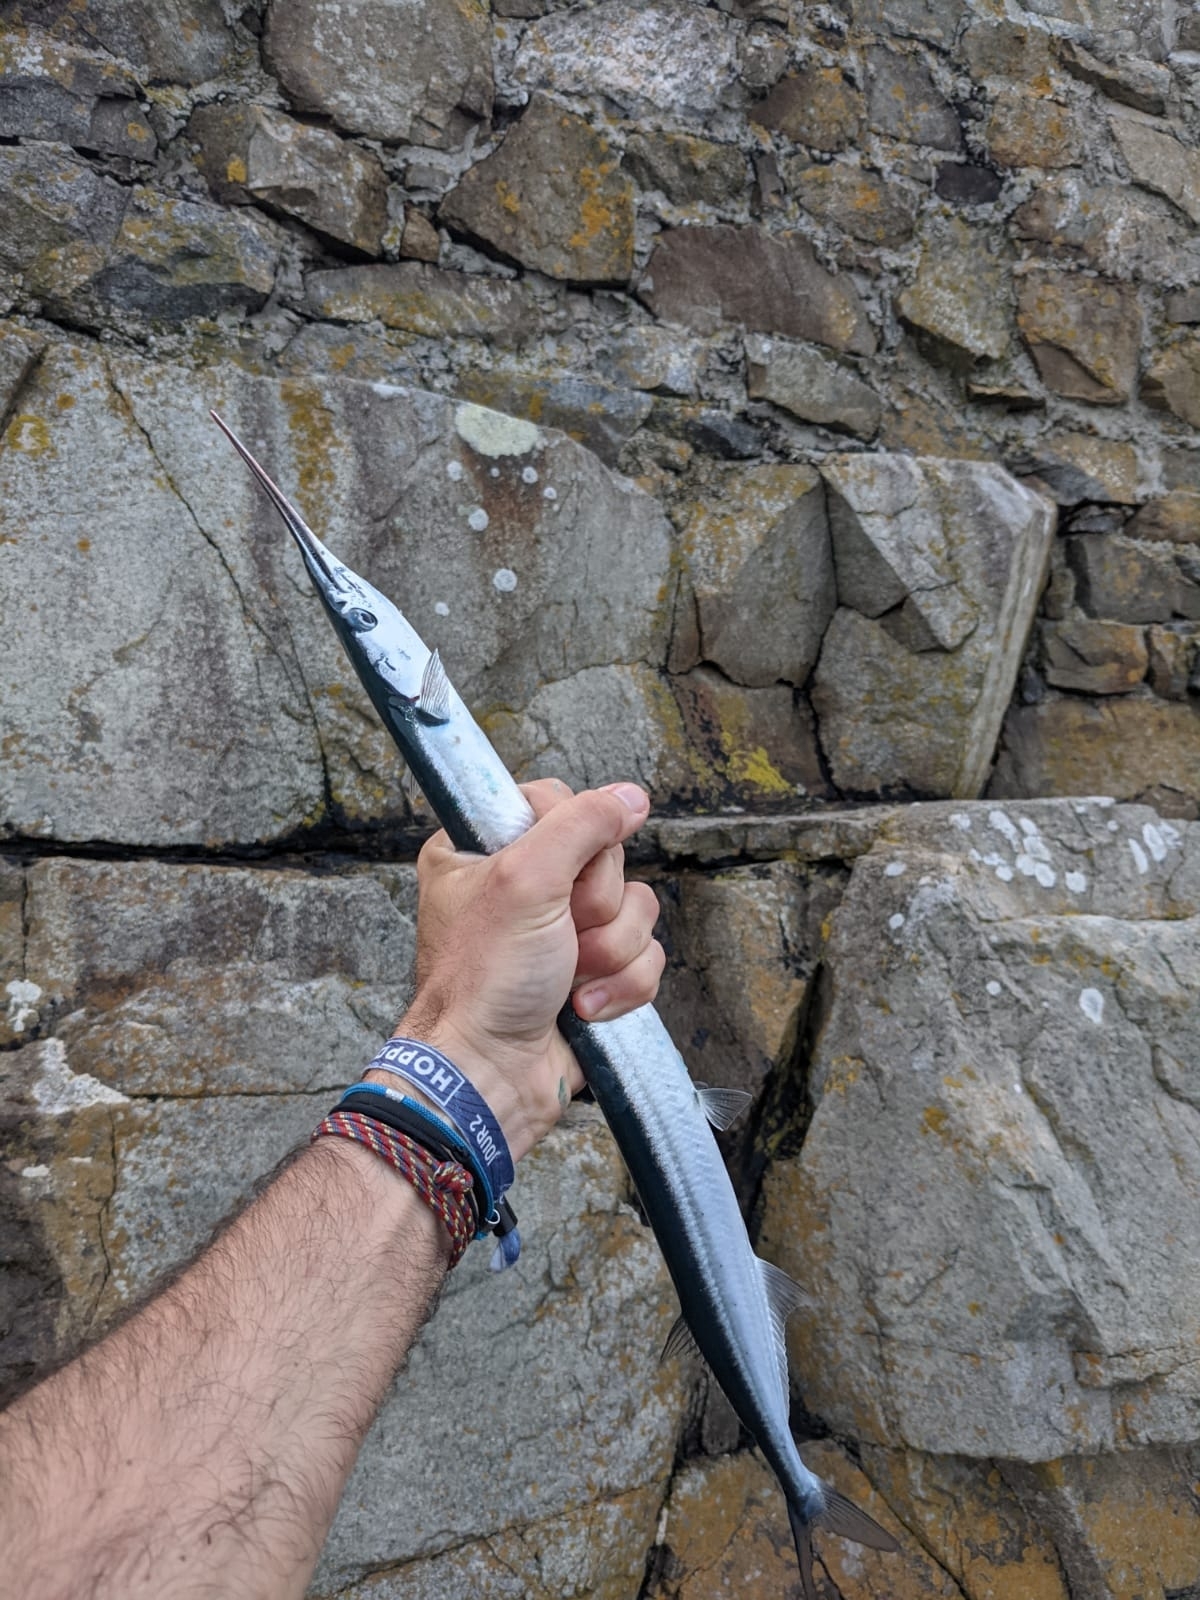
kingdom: Animalia
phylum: Chordata
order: Beloniformes
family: Belonidae
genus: Belone
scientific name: Belone belone
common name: Garfish
